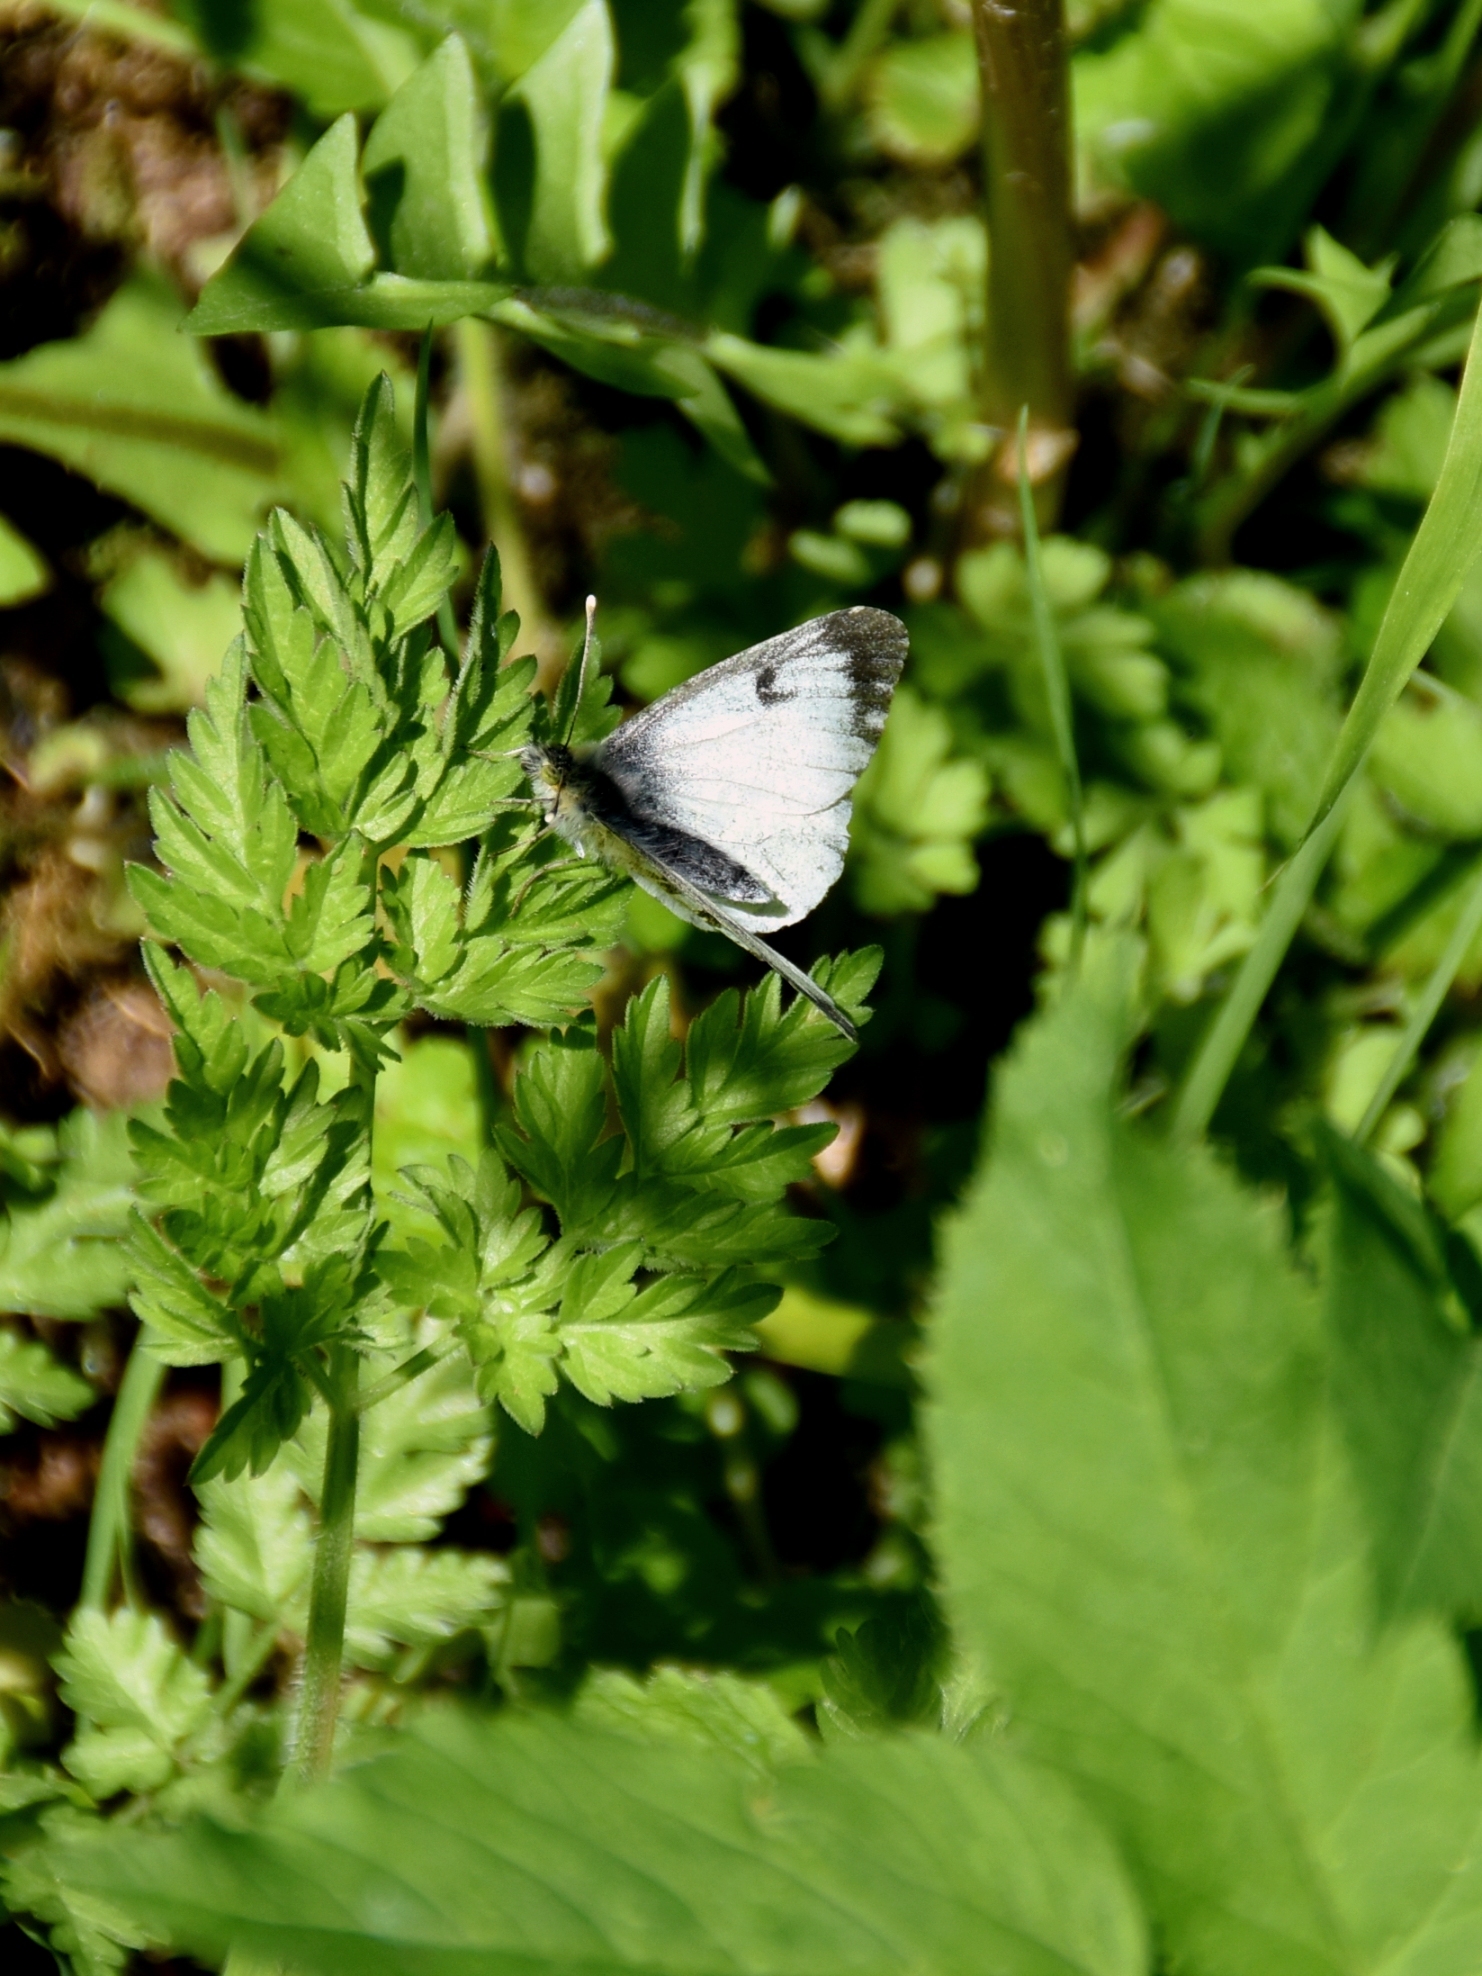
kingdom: Animalia
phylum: Arthropoda
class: Insecta
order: Lepidoptera
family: Pieridae
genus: Anthocharis
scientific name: Anthocharis cardamines
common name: Orange-tip
